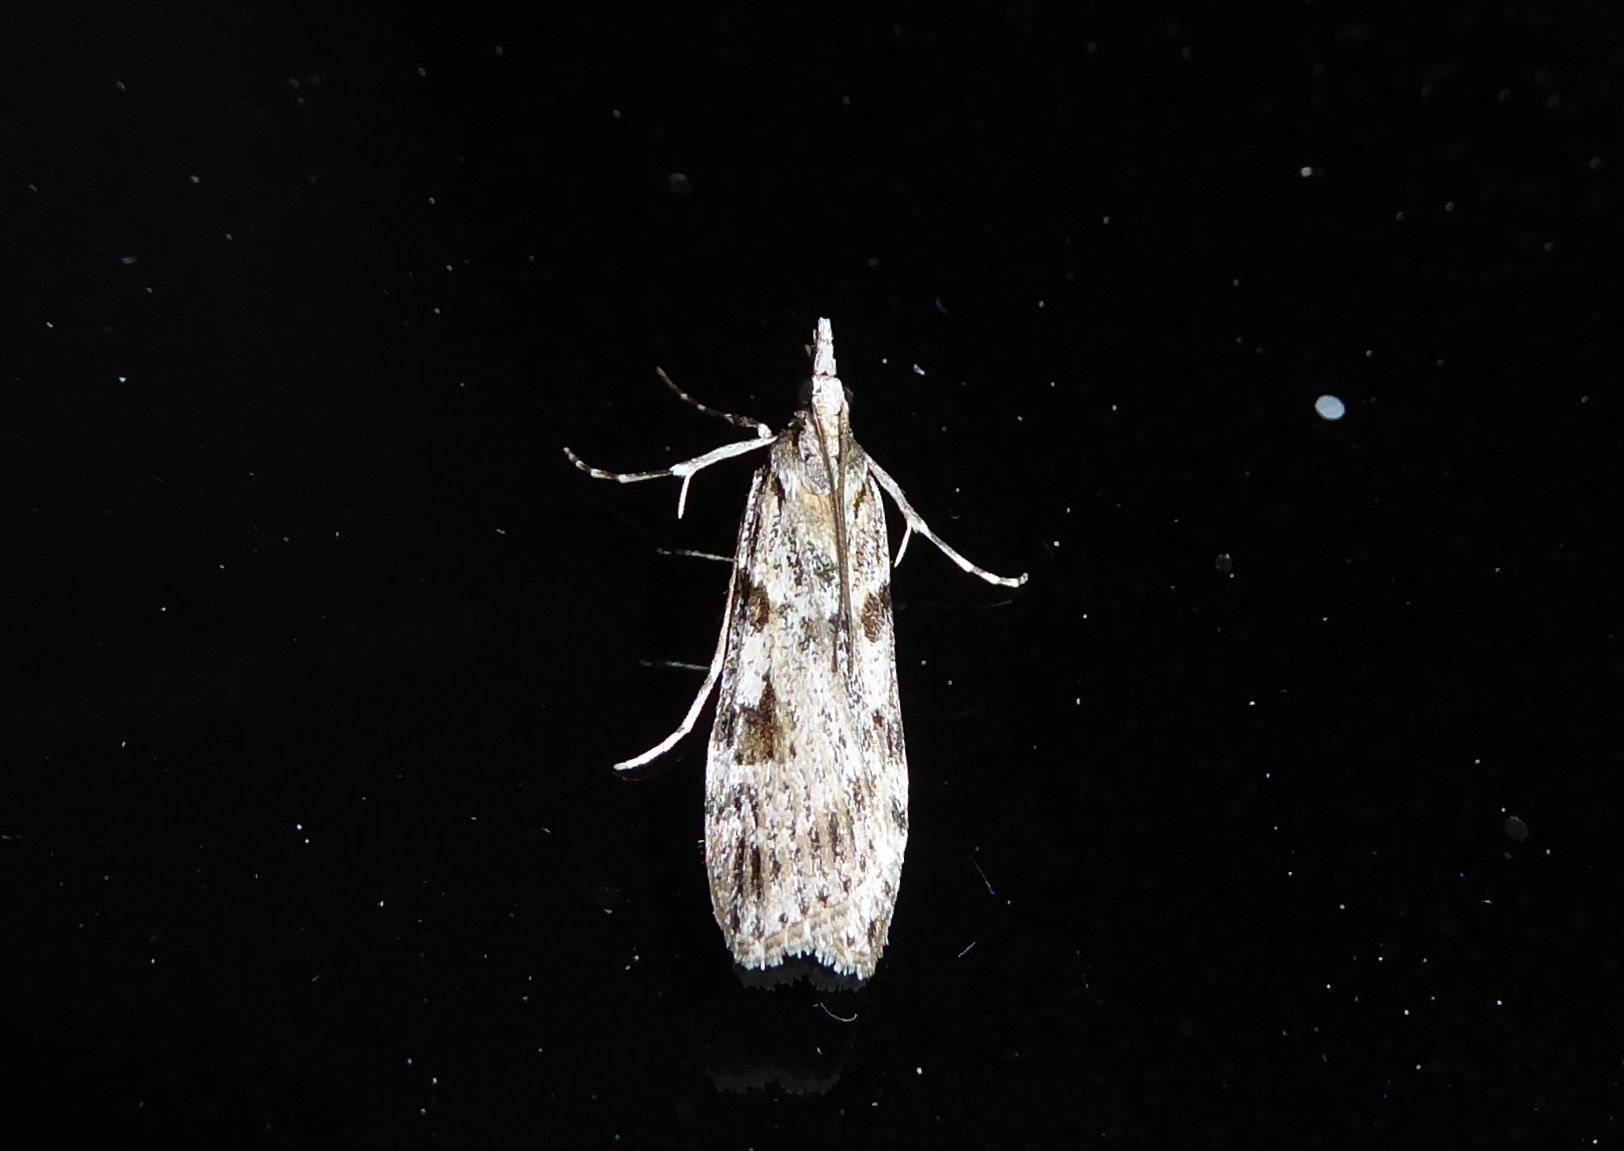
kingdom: Animalia
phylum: Arthropoda
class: Insecta
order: Lepidoptera
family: Crambidae
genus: Scoparia
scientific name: Scoparia halopis
